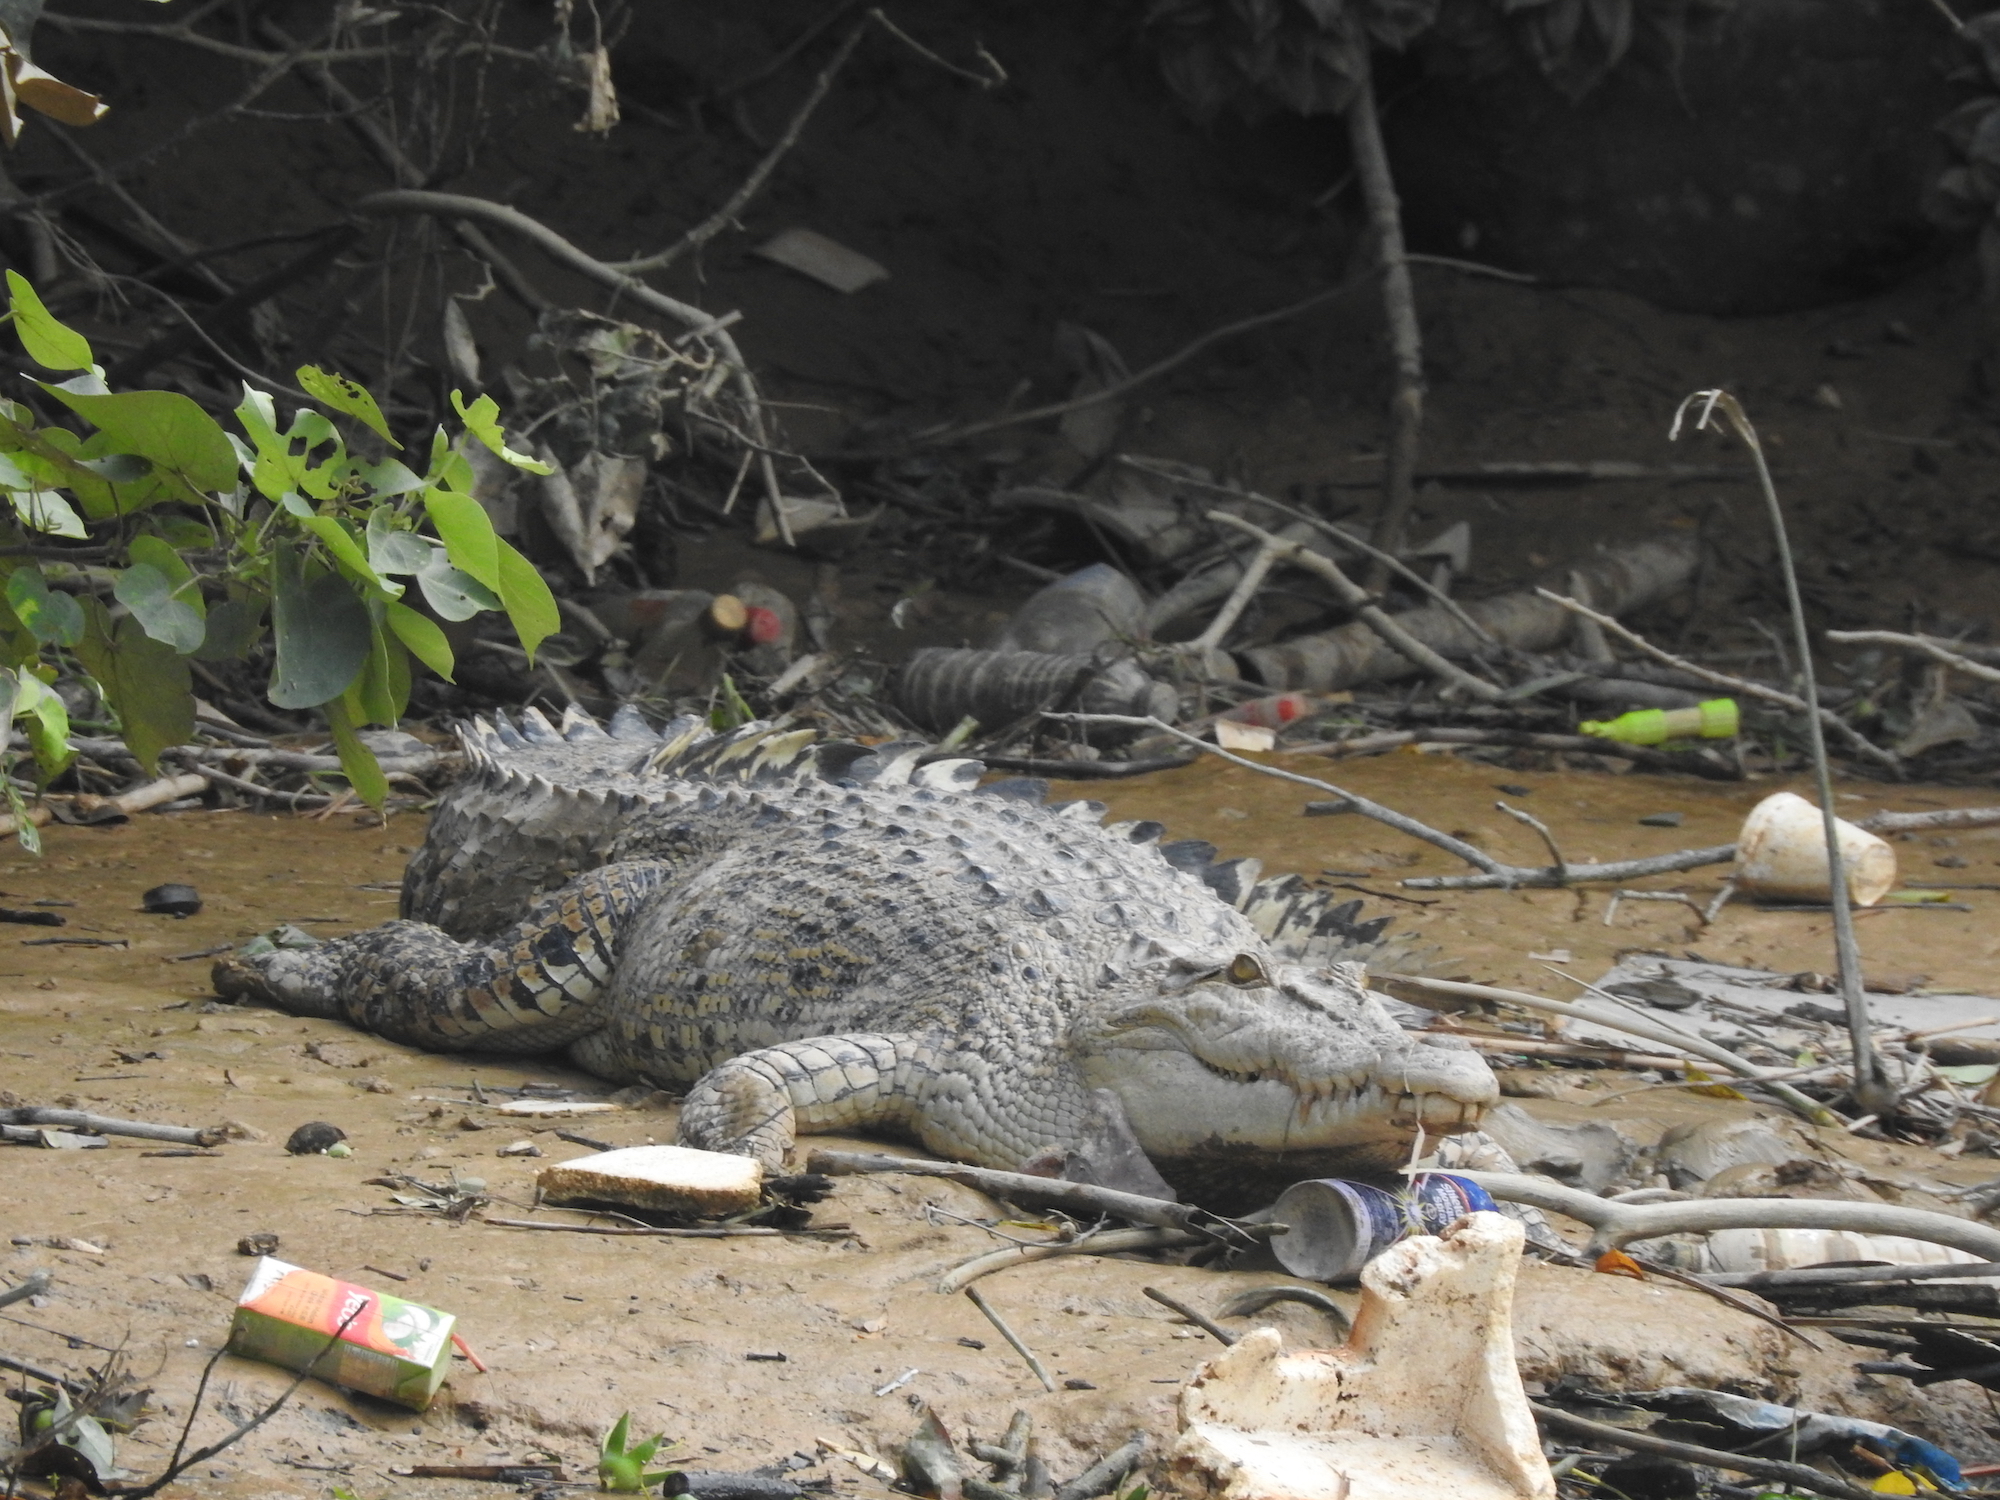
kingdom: Animalia
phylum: Chordata
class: Crocodylia
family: Crocodylidae
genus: Crocodylus
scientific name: Crocodylus porosus
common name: Saltwater crocodile
